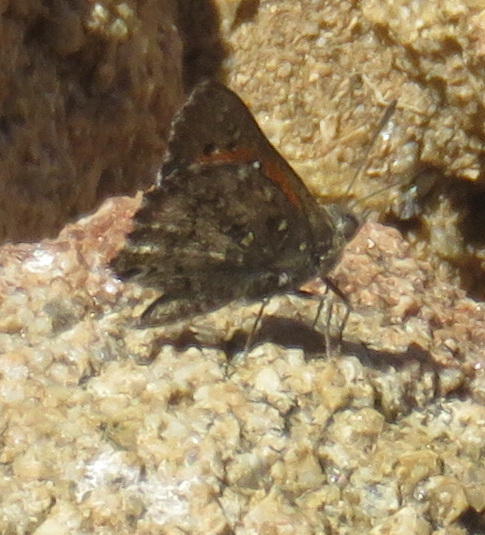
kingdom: Animalia
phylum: Arthropoda
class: Insecta
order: Lepidoptera
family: Lycaenidae
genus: Aloeides
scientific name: Aloeides vansoni
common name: Van son's copper
